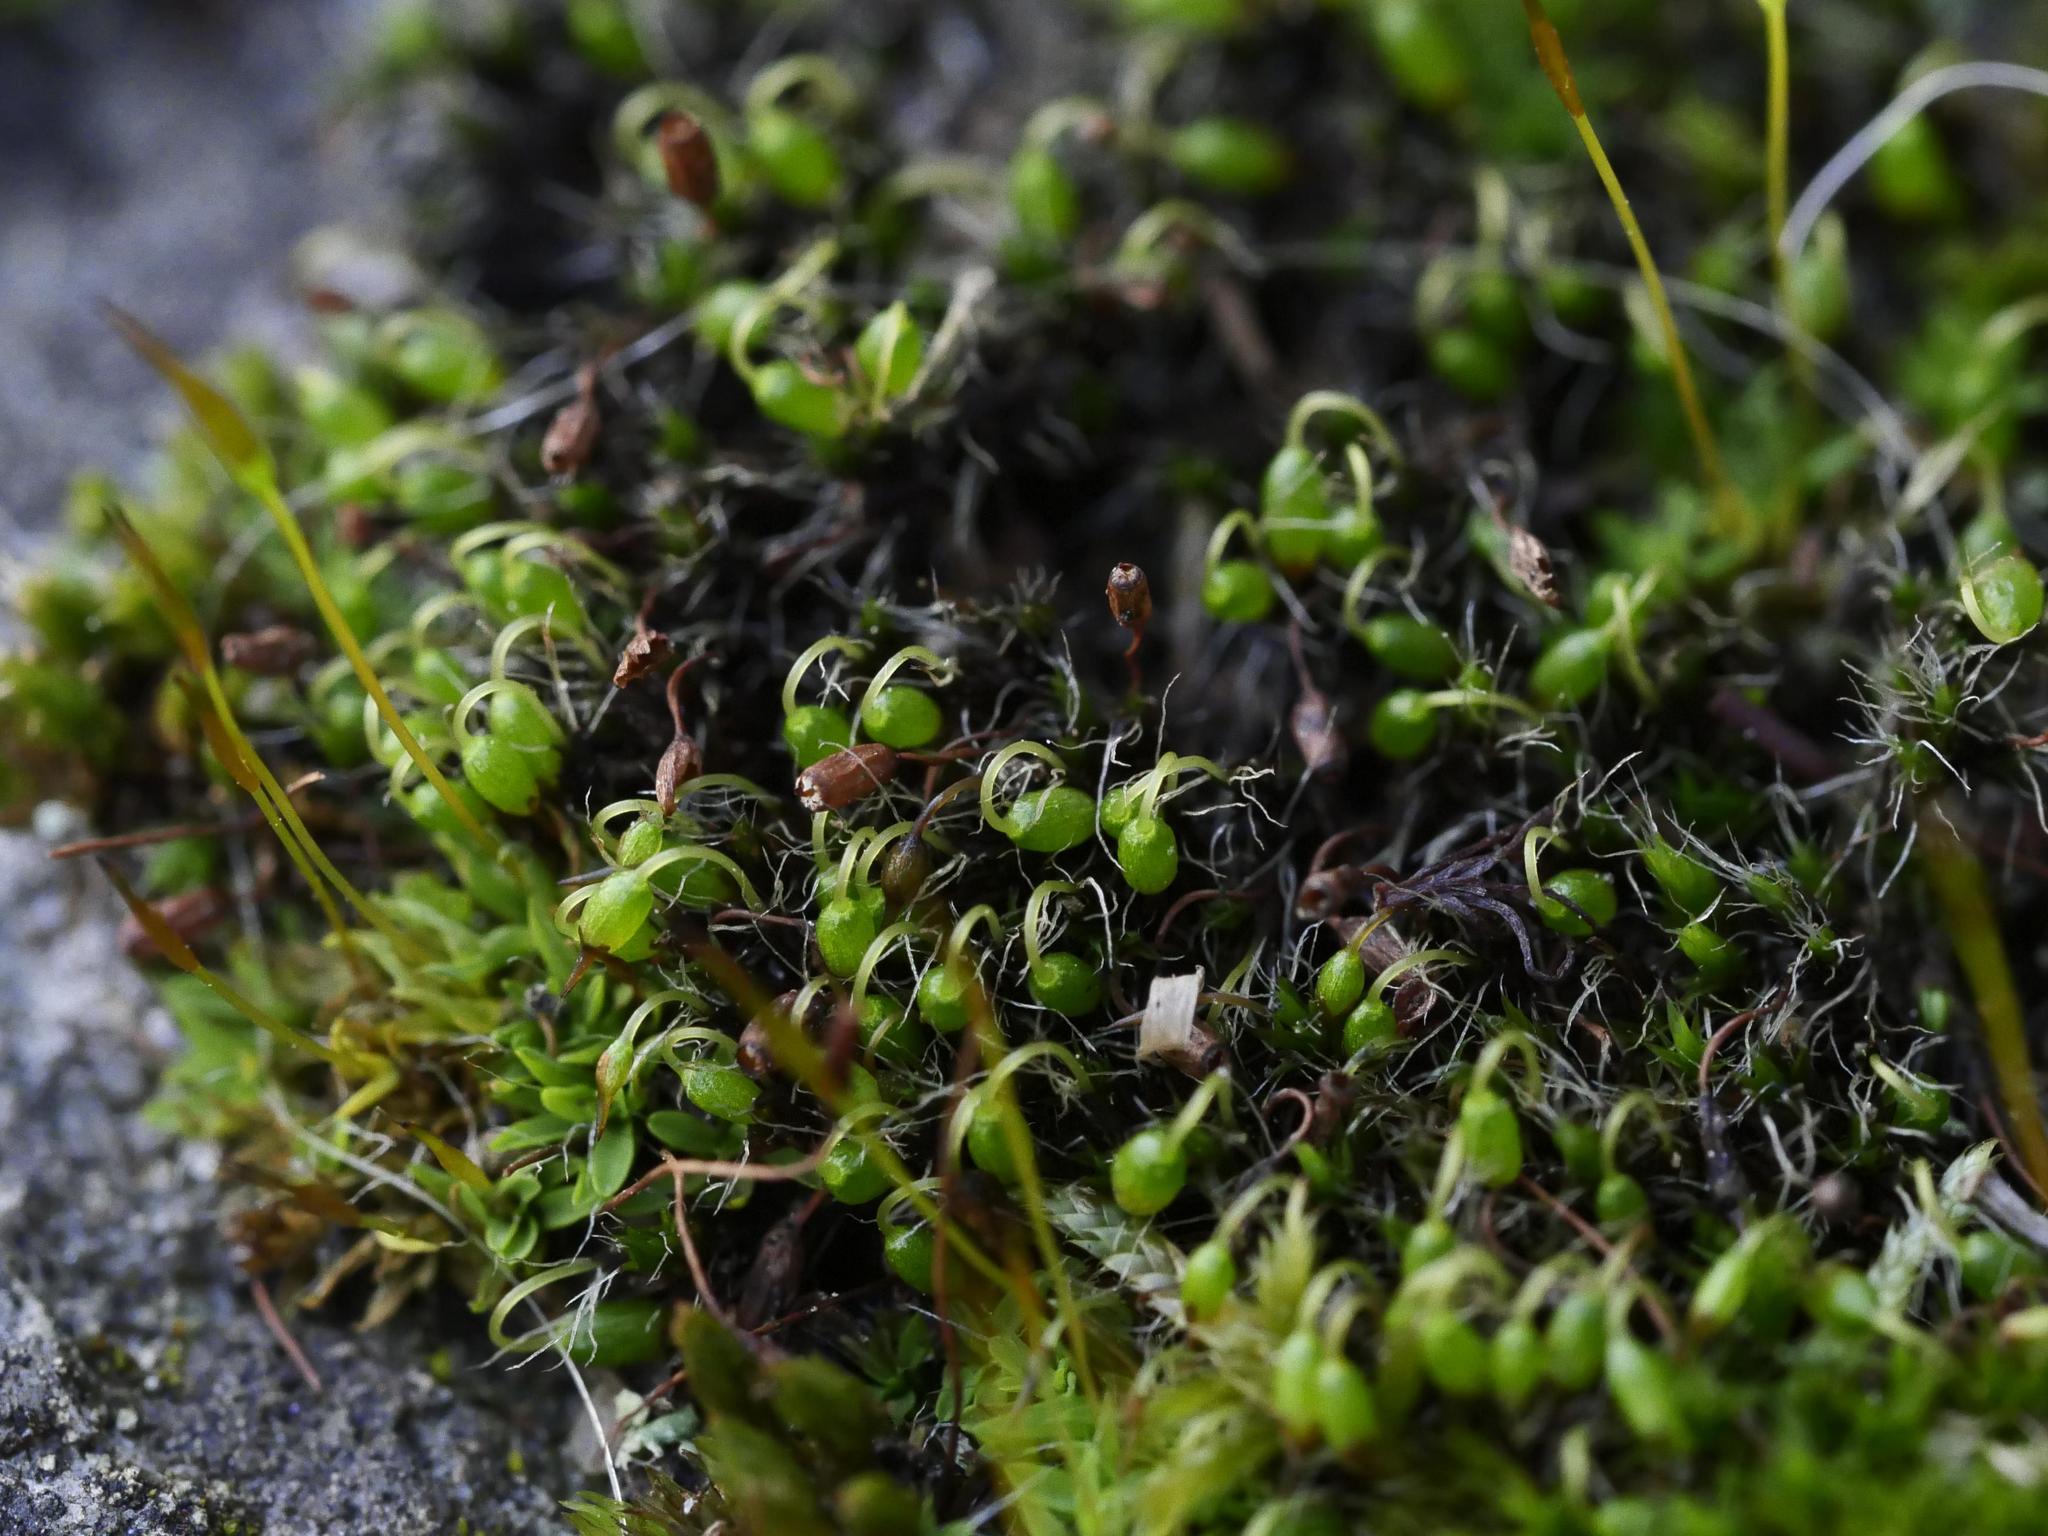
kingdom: Plantae
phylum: Bryophyta
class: Bryopsida
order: Grimmiales
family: Grimmiaceae
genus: Grimmia
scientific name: Grimmia pulvinata
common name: Grey-cushioned grimmia
